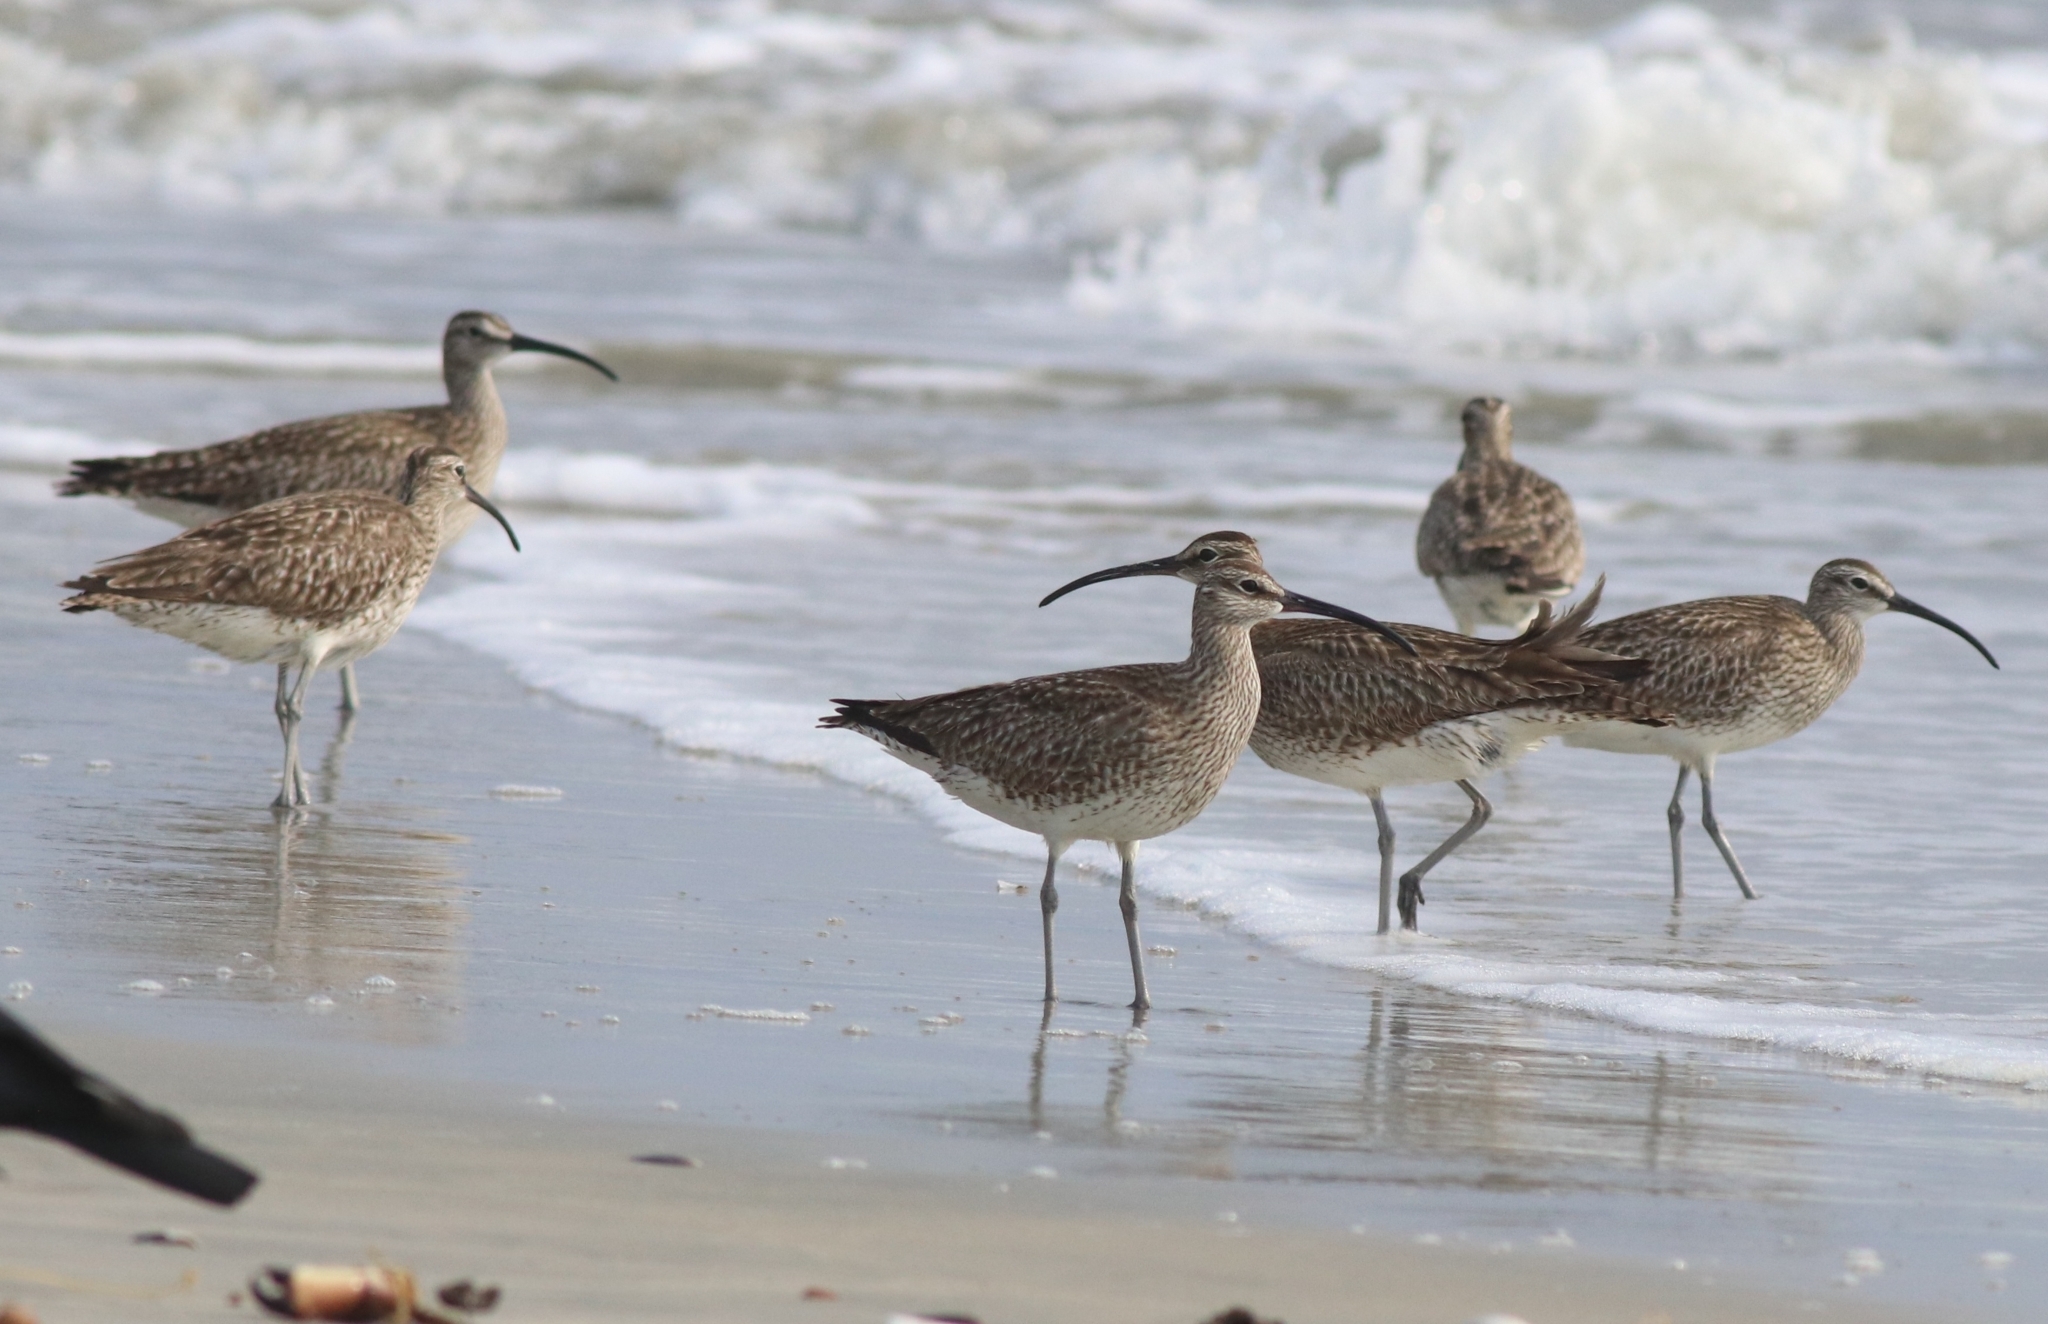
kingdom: Animalia
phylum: Chordata
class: Aves
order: Charadriiformes
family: Scolopacidae
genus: Numenius
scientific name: Numenius phaeopus
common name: Whimbrel
